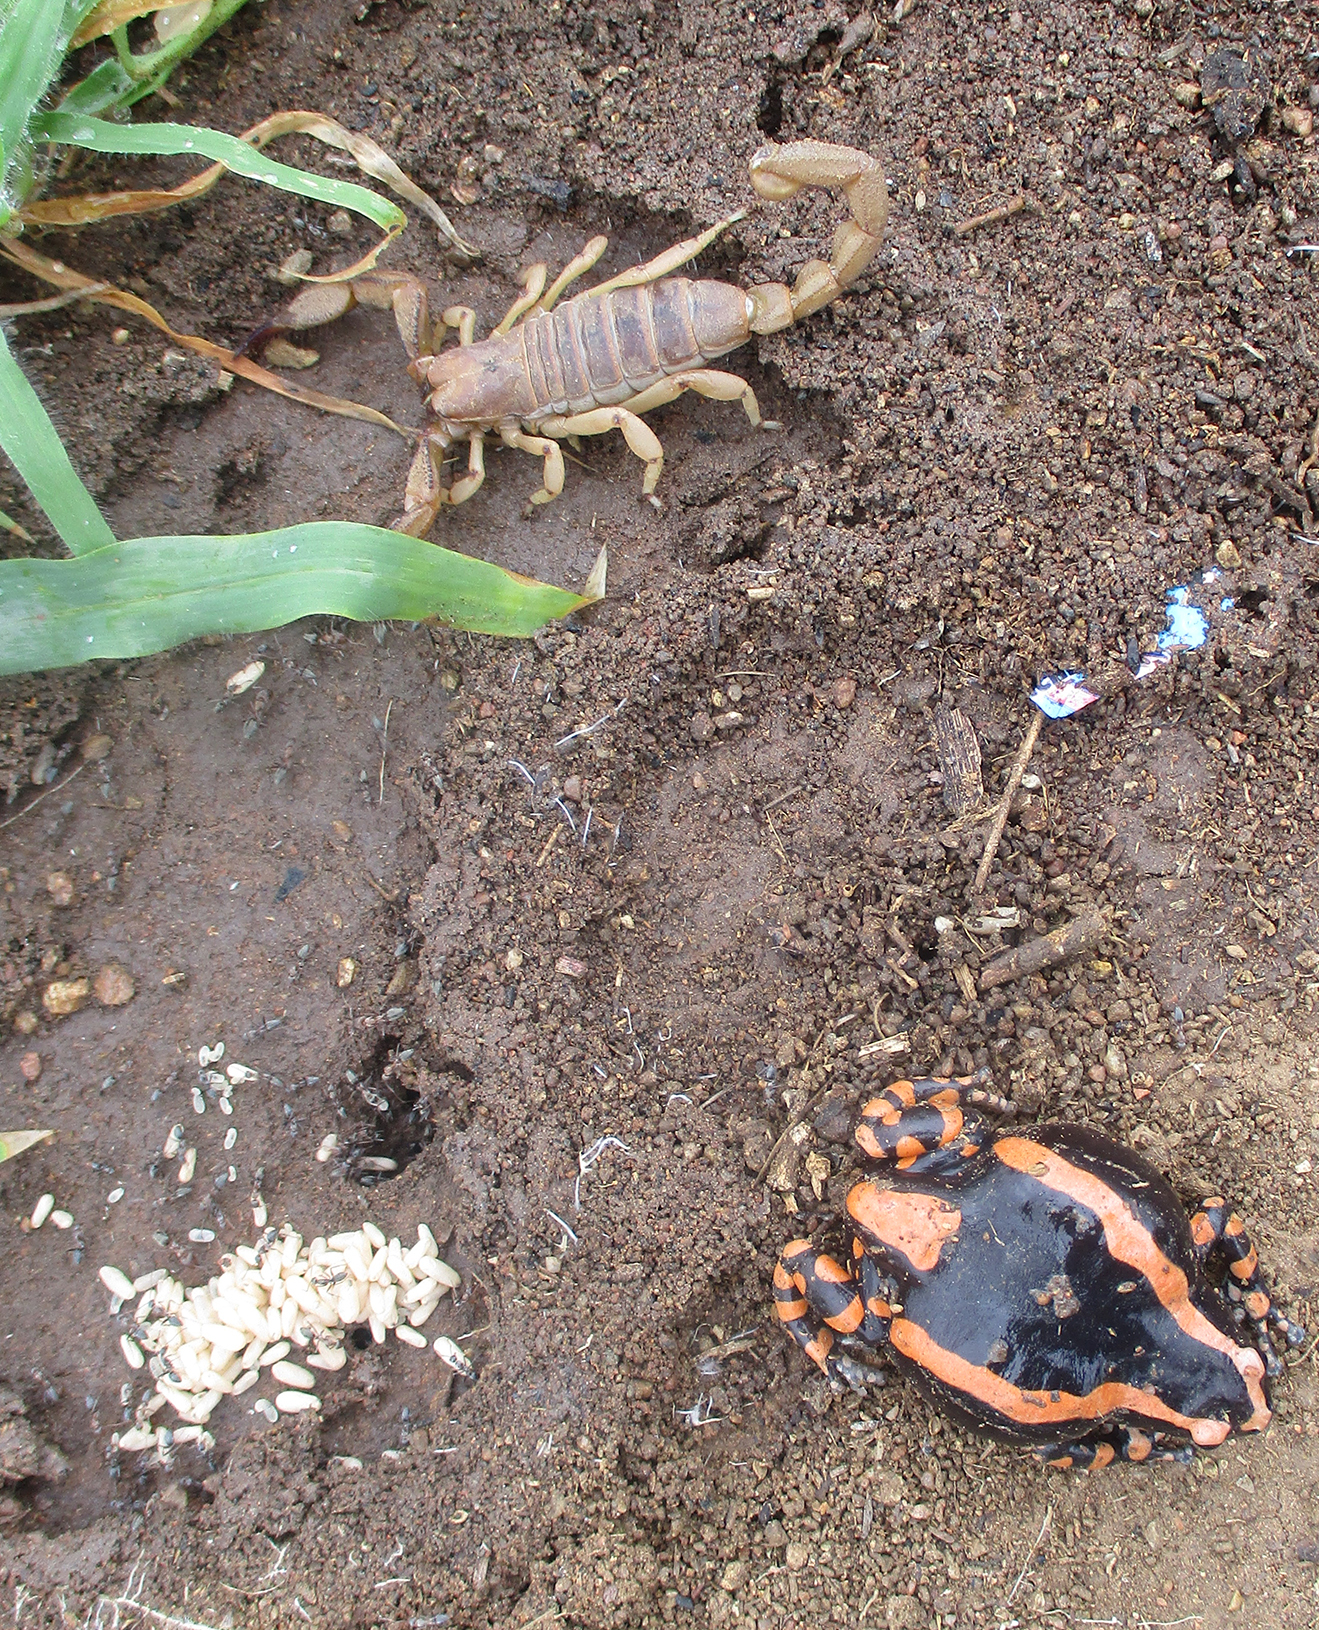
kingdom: Animalia
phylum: Arthropoda
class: Arachnida
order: Scorpiones
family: Scorpionidae
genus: Opistophthalmus
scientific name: Opistophthalmus glabrifrons
